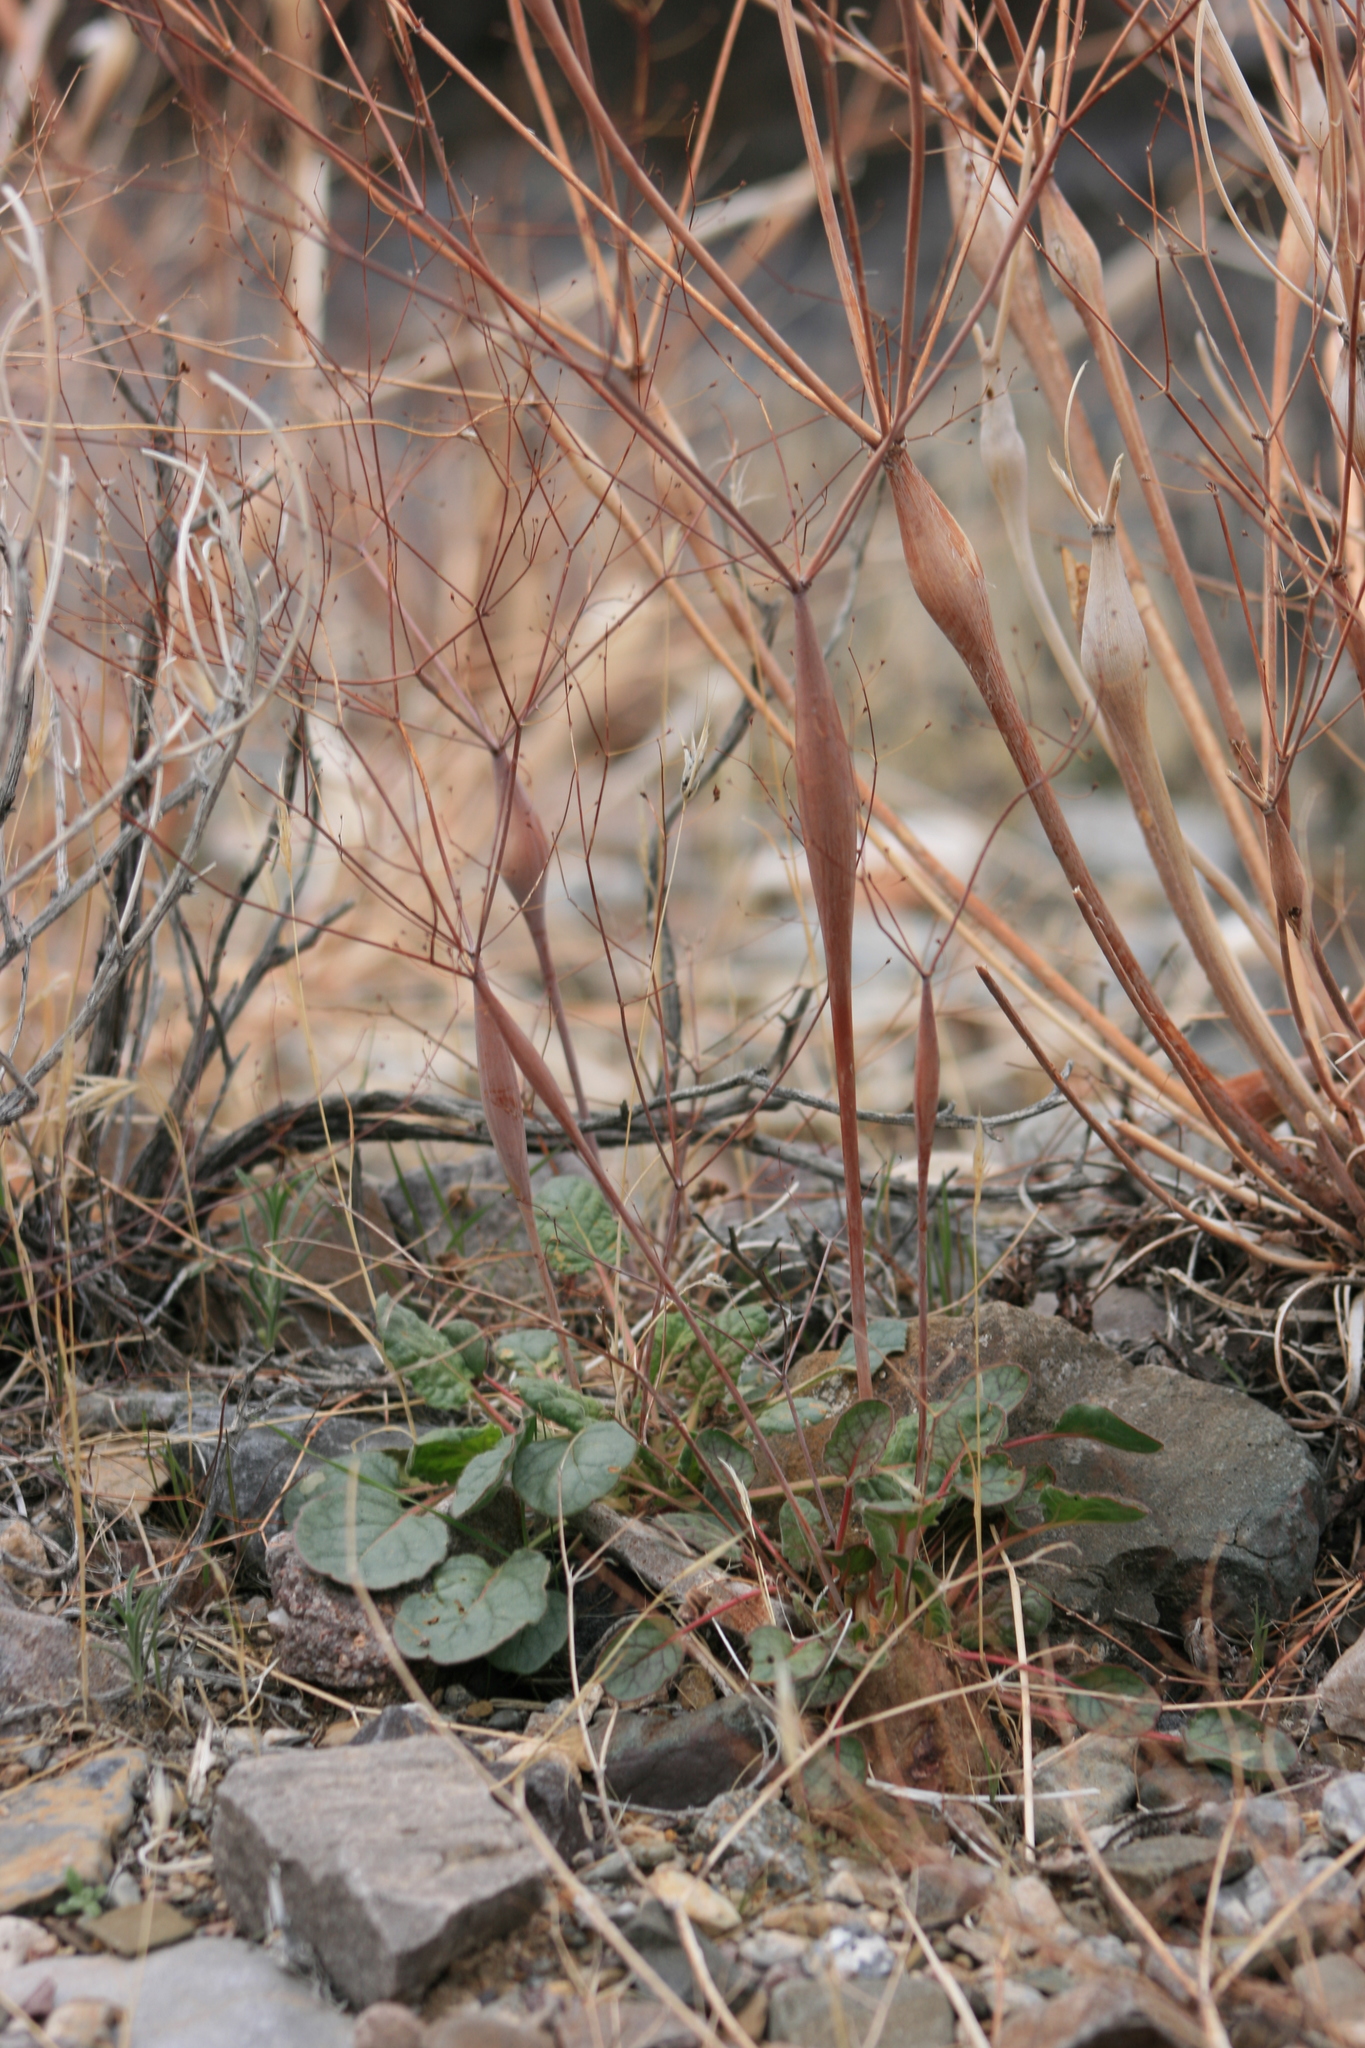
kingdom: Plantae
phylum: Tracheophyta
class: Magnoliopsida
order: Caryophyllales
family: Polygonaceae
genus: Eriogonum
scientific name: Eriogonum inflatum
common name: Desert trumpet
